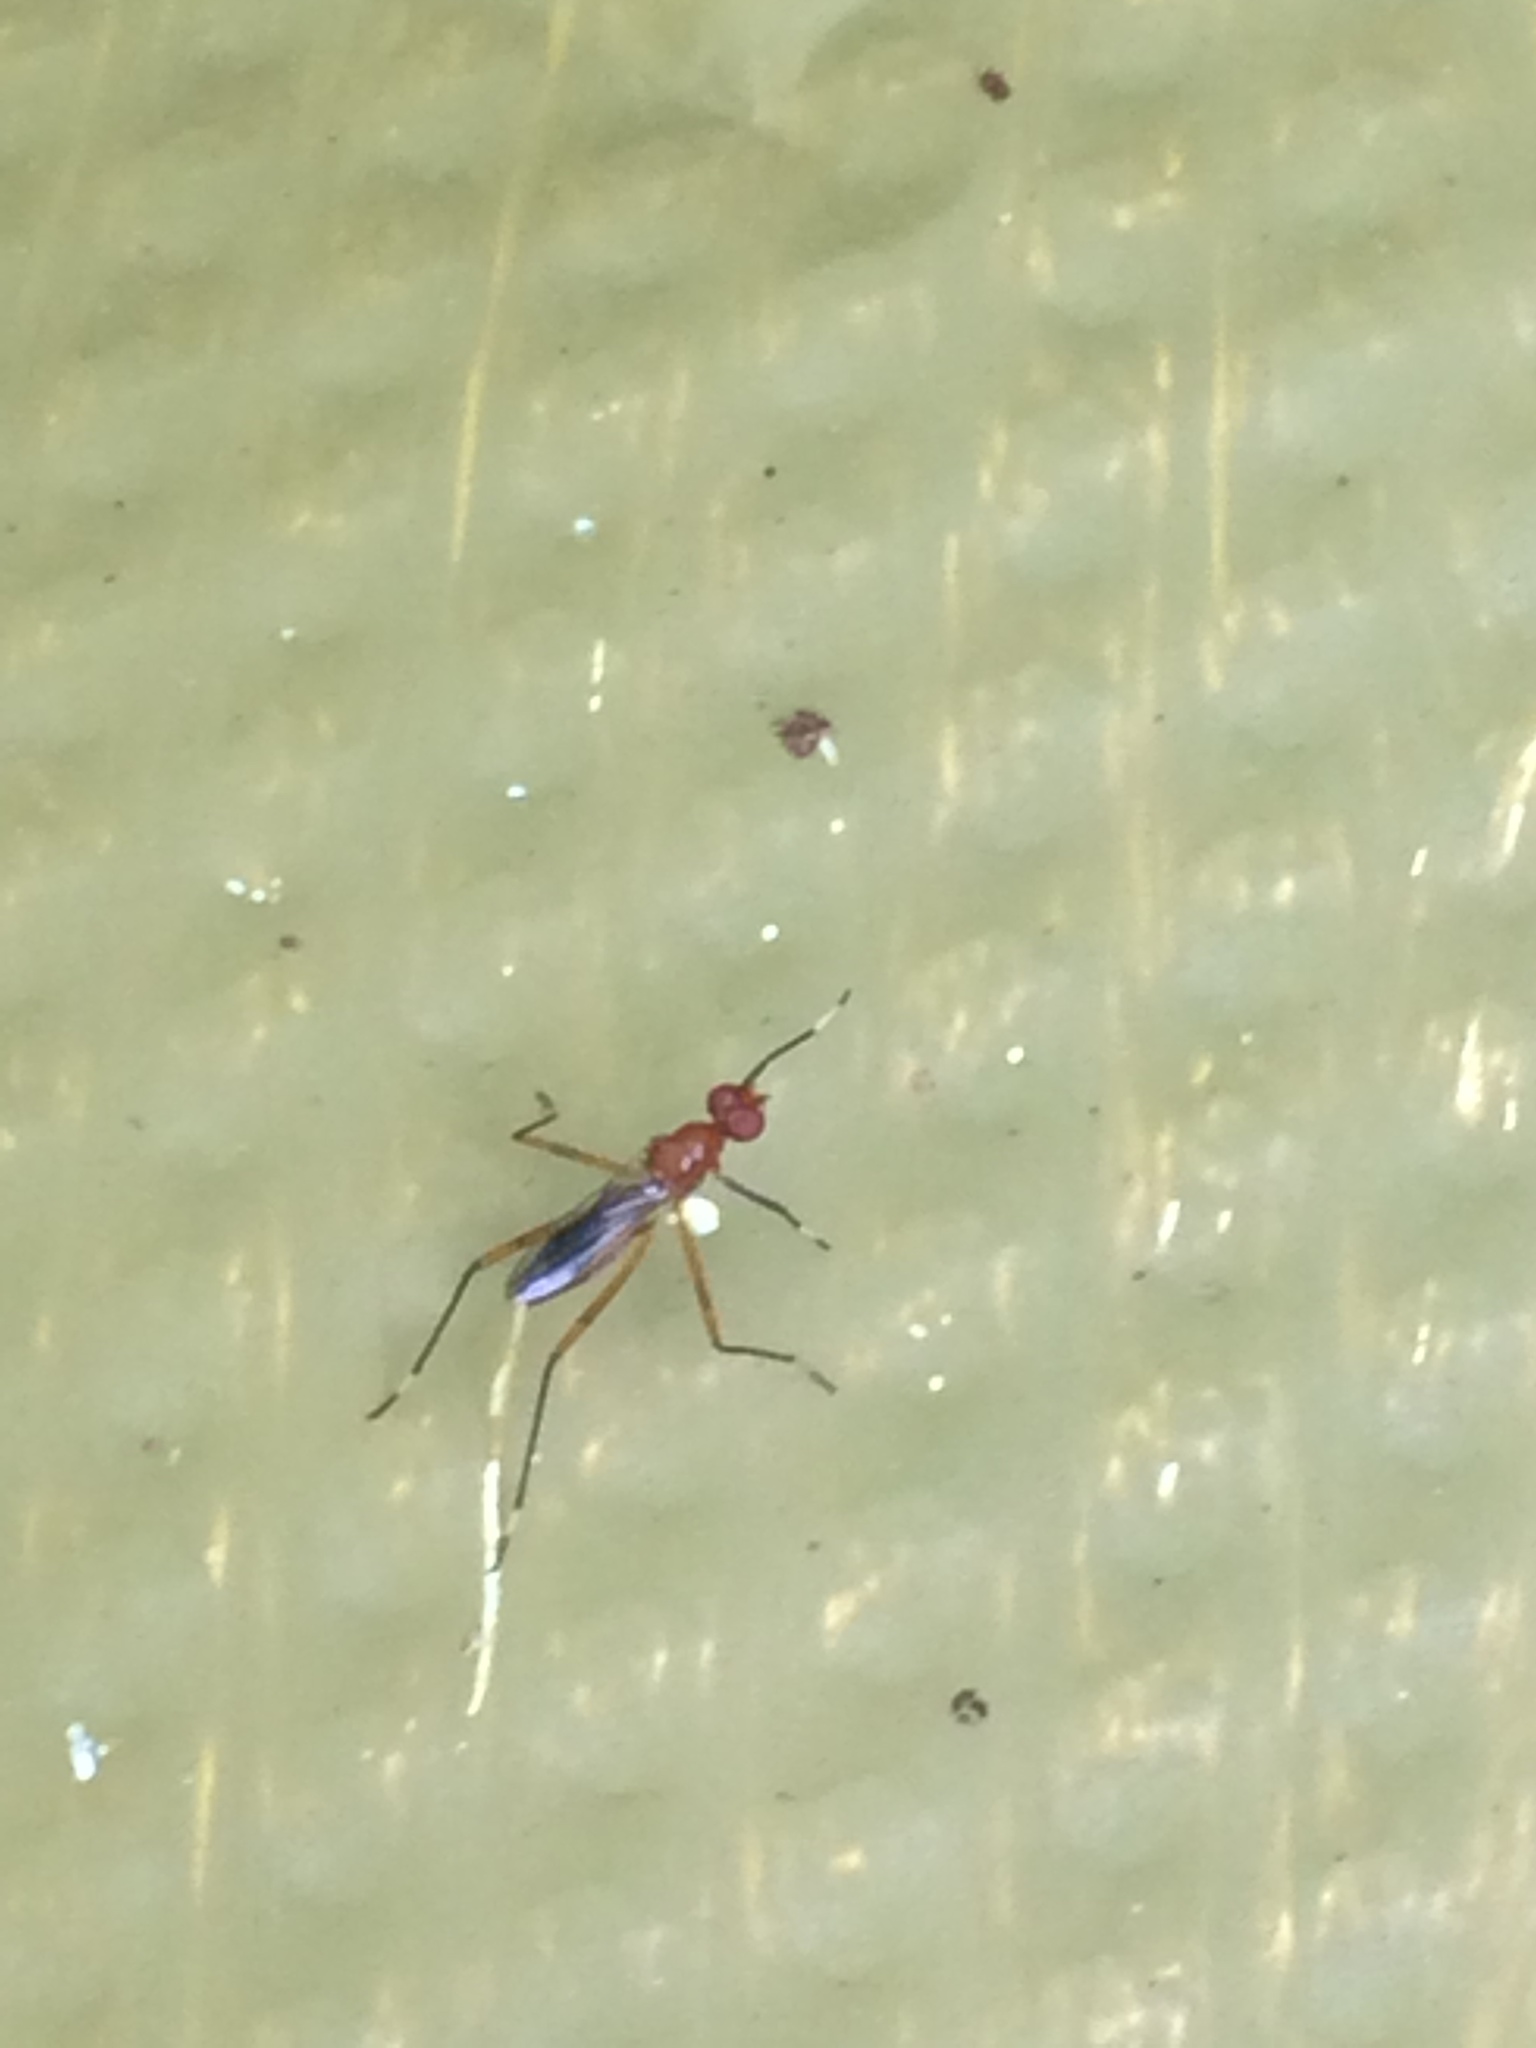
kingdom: Animalia
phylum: Arthropoda
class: Insecta
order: Diptera
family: Micropezidae
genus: Grallipeza
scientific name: Grallipeza nebulosa
